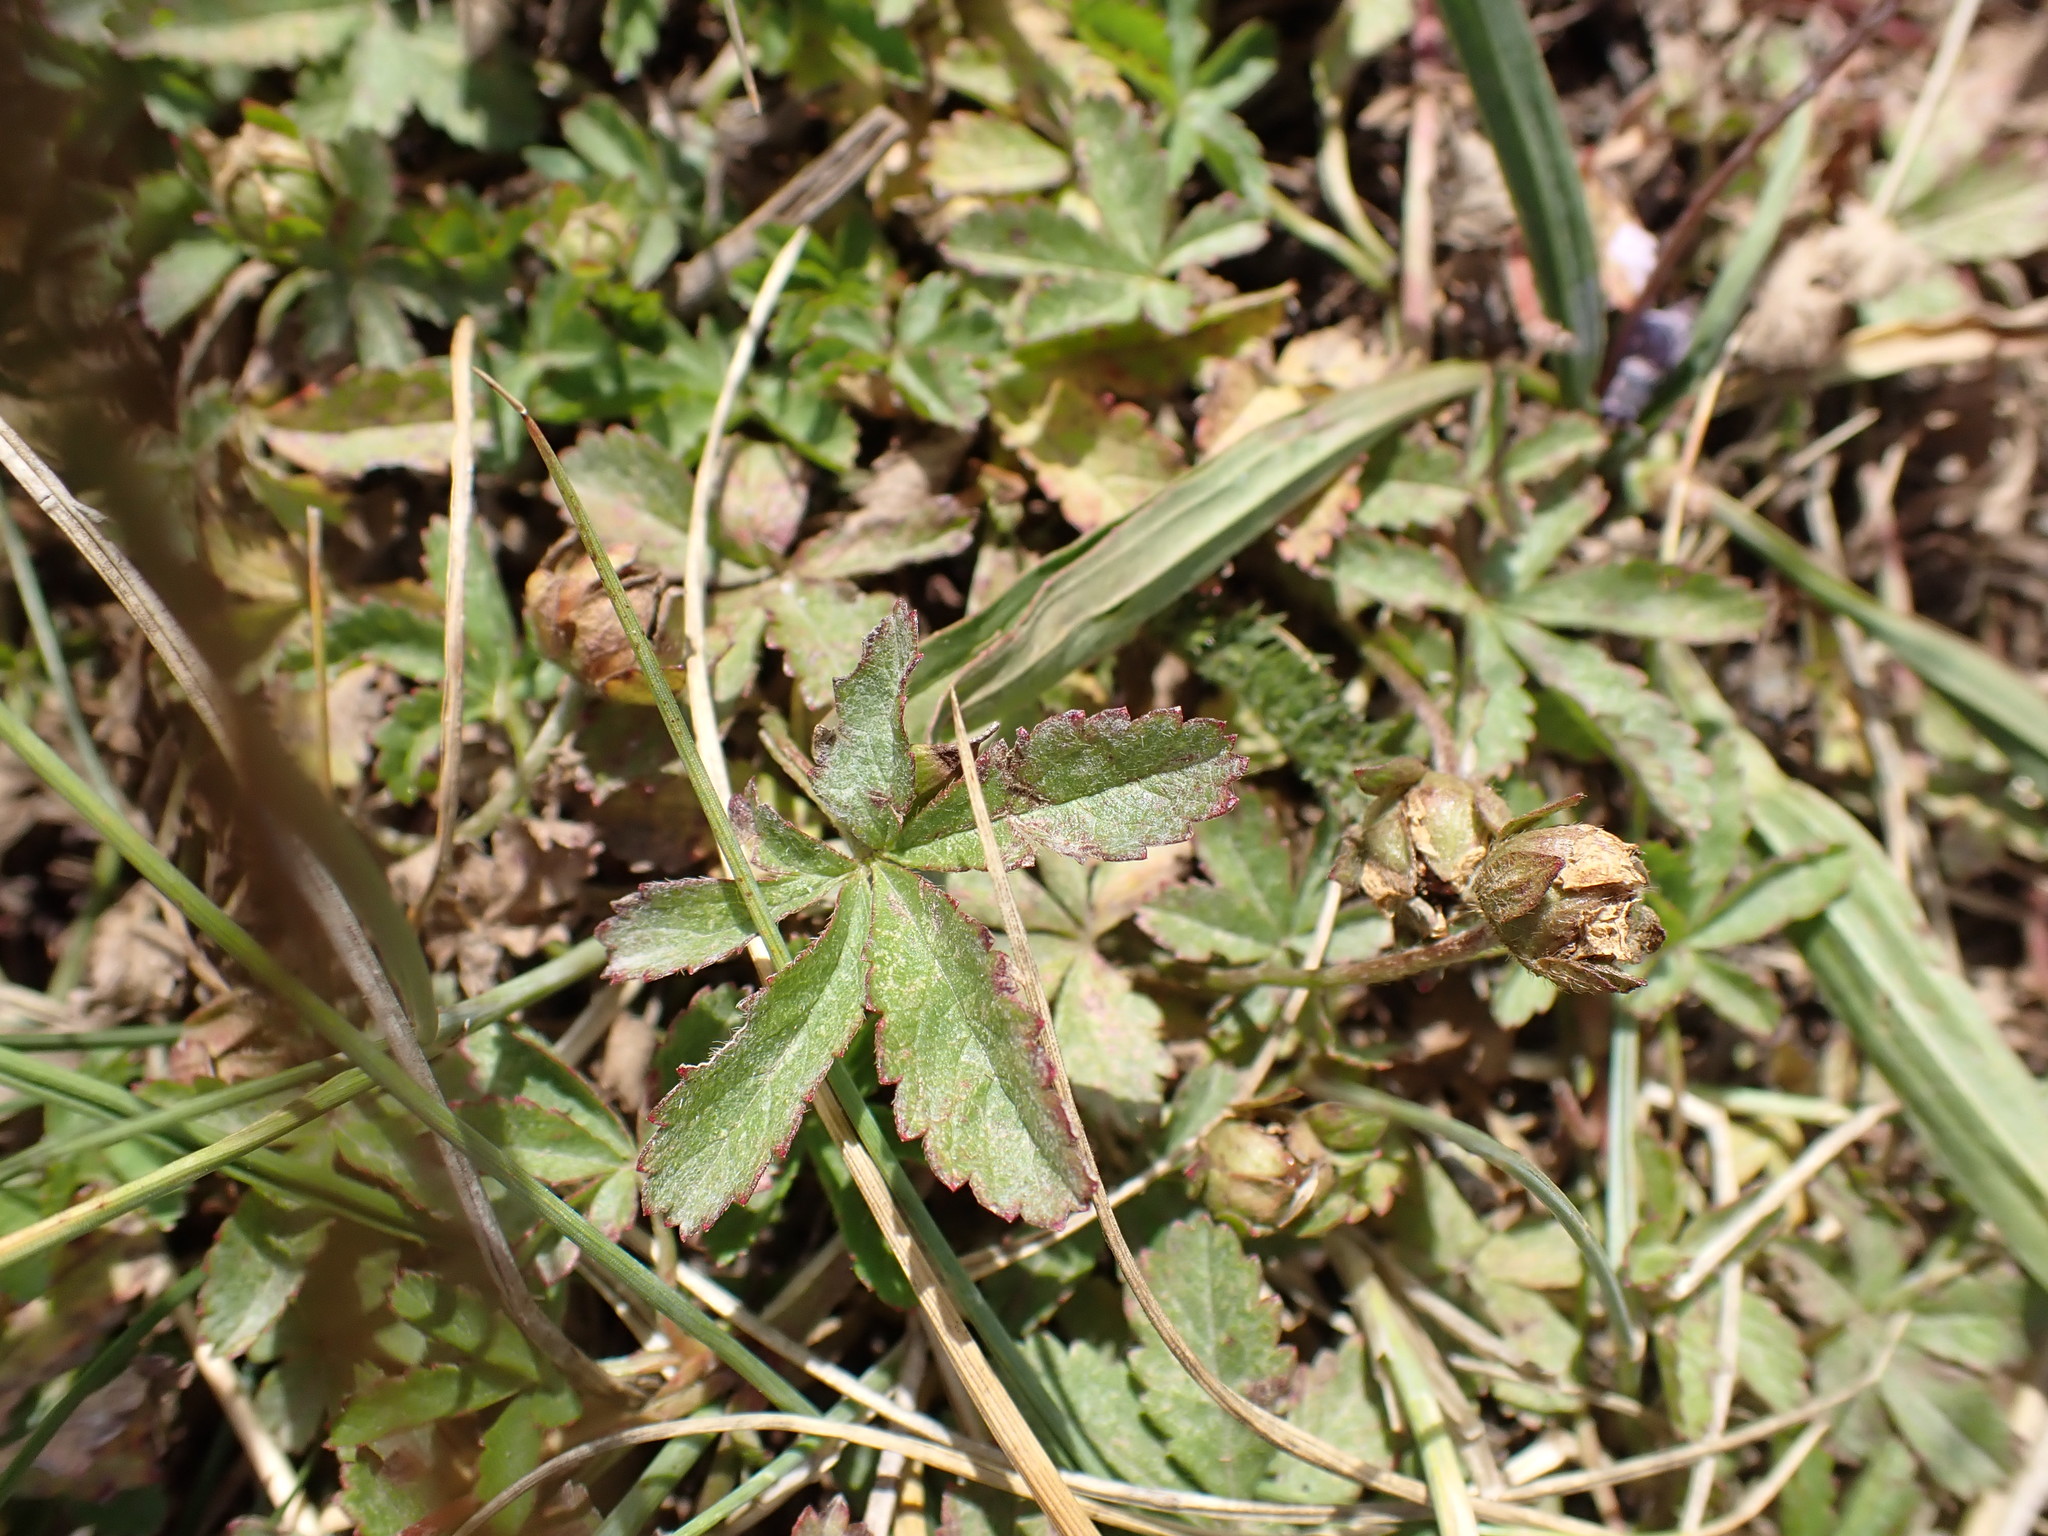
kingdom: Plantae
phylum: Tracheophyta
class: Magnoliopsida
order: Rosales
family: Rosaceae
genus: Potentilla
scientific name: Potentilla reptans
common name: Creeping cinquefoil
